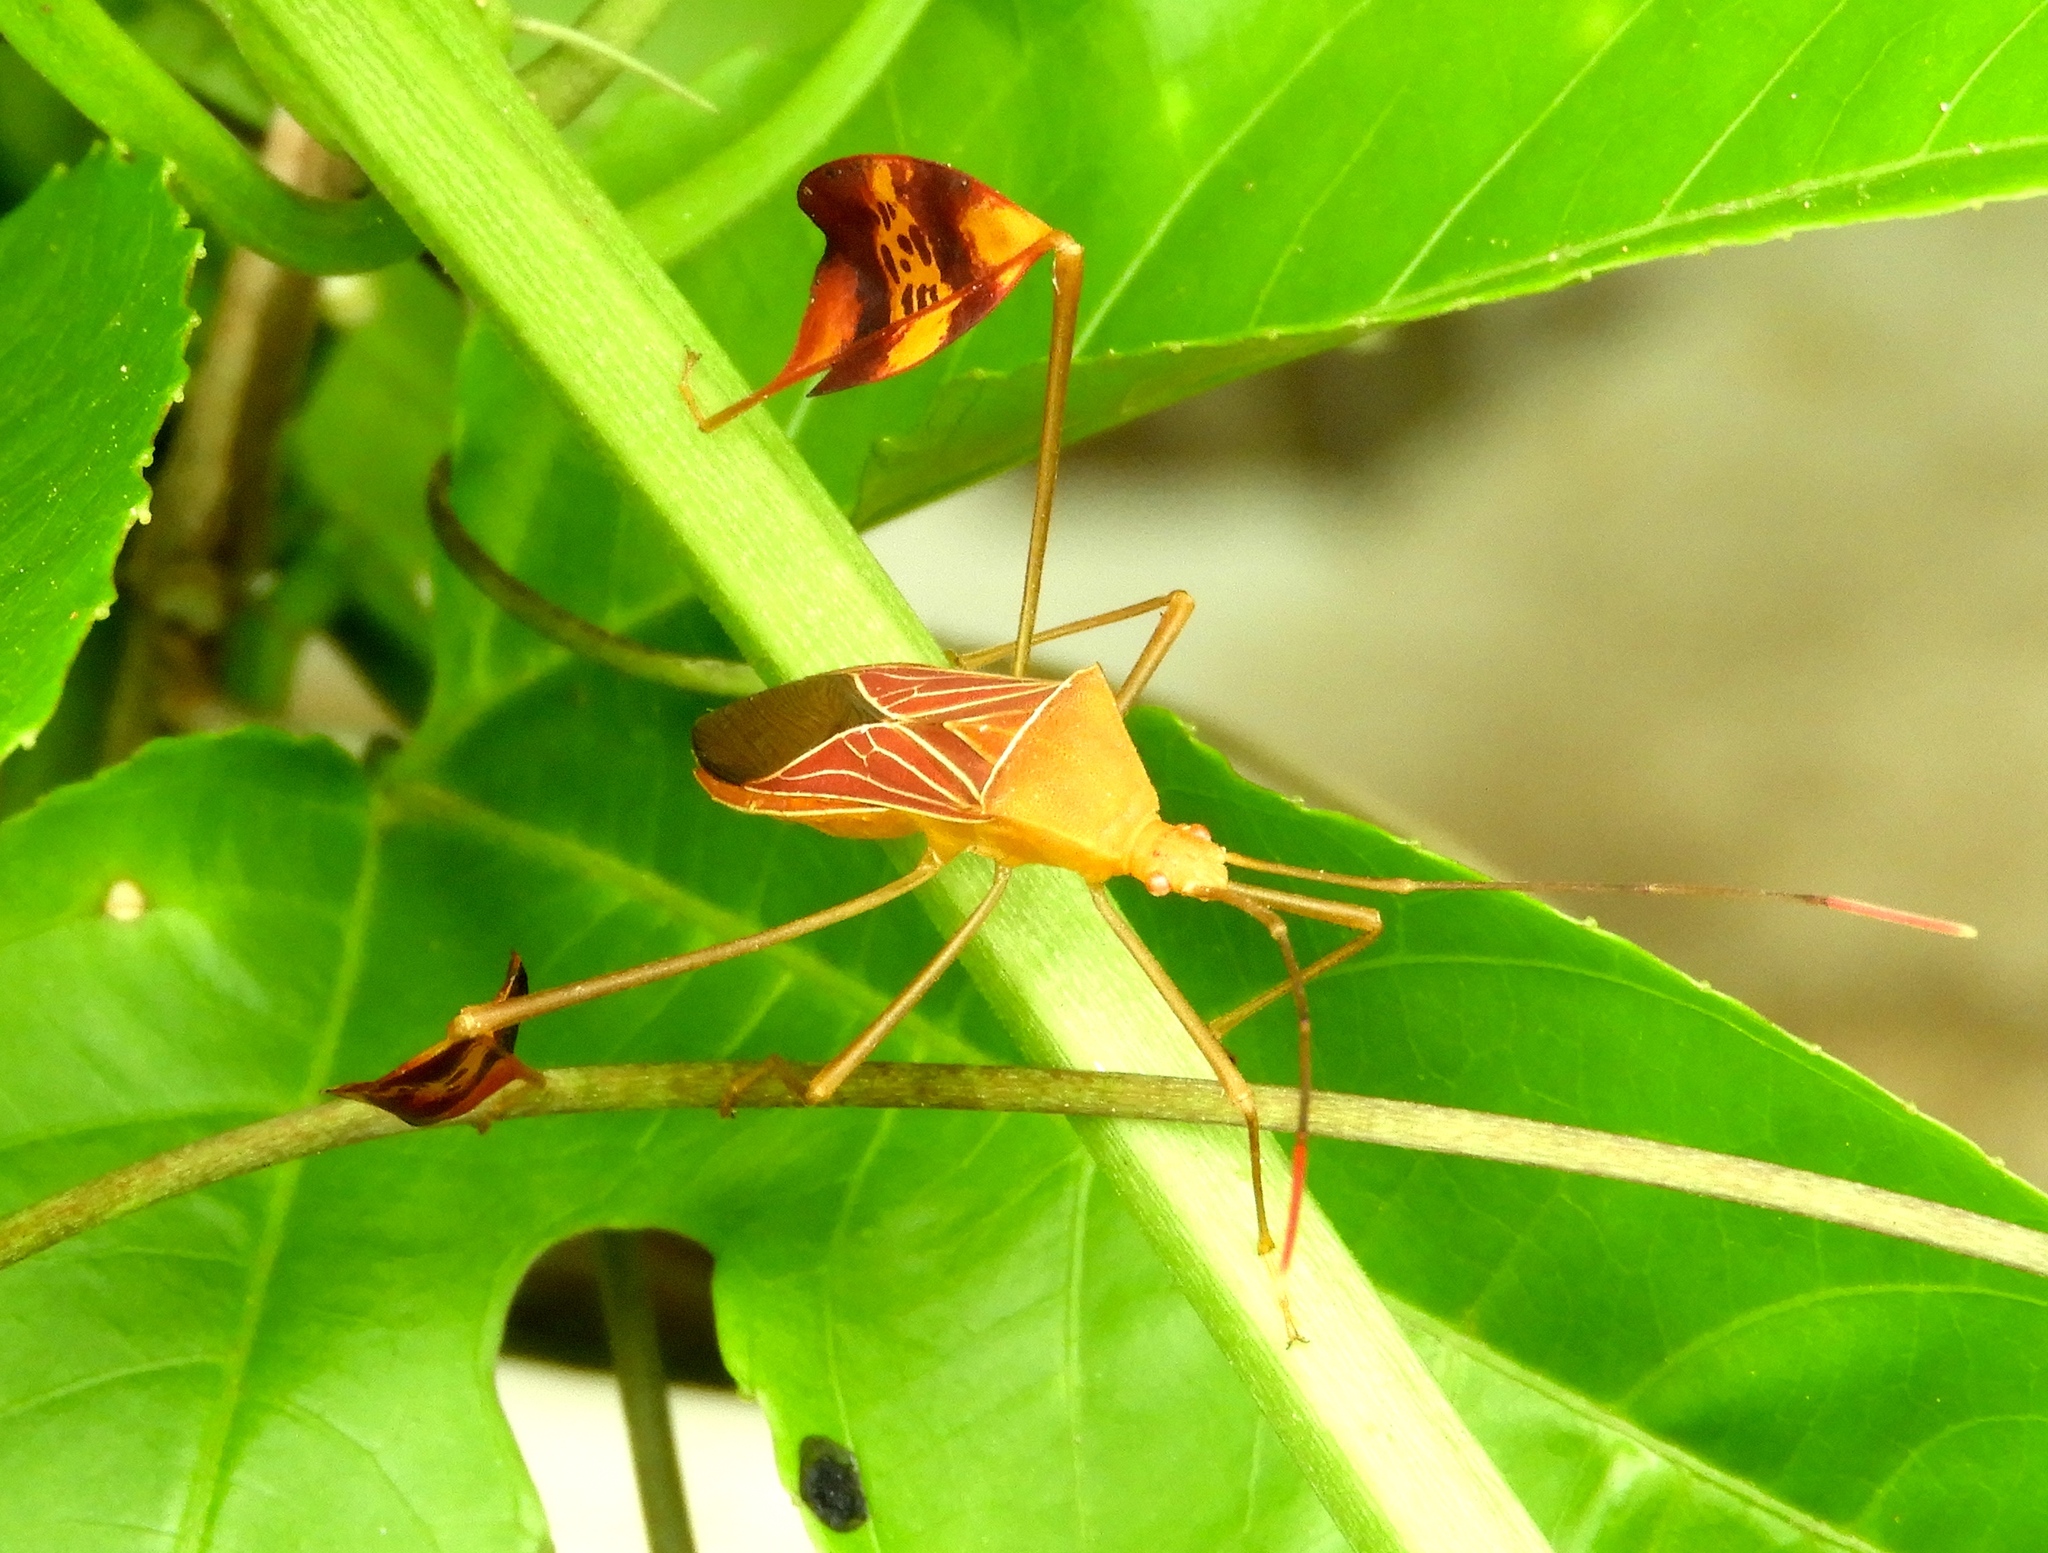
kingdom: Animalia
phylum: Arthropoda
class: Insecta
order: Hemiptera
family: Coreidae
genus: Bitta
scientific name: Bitta
